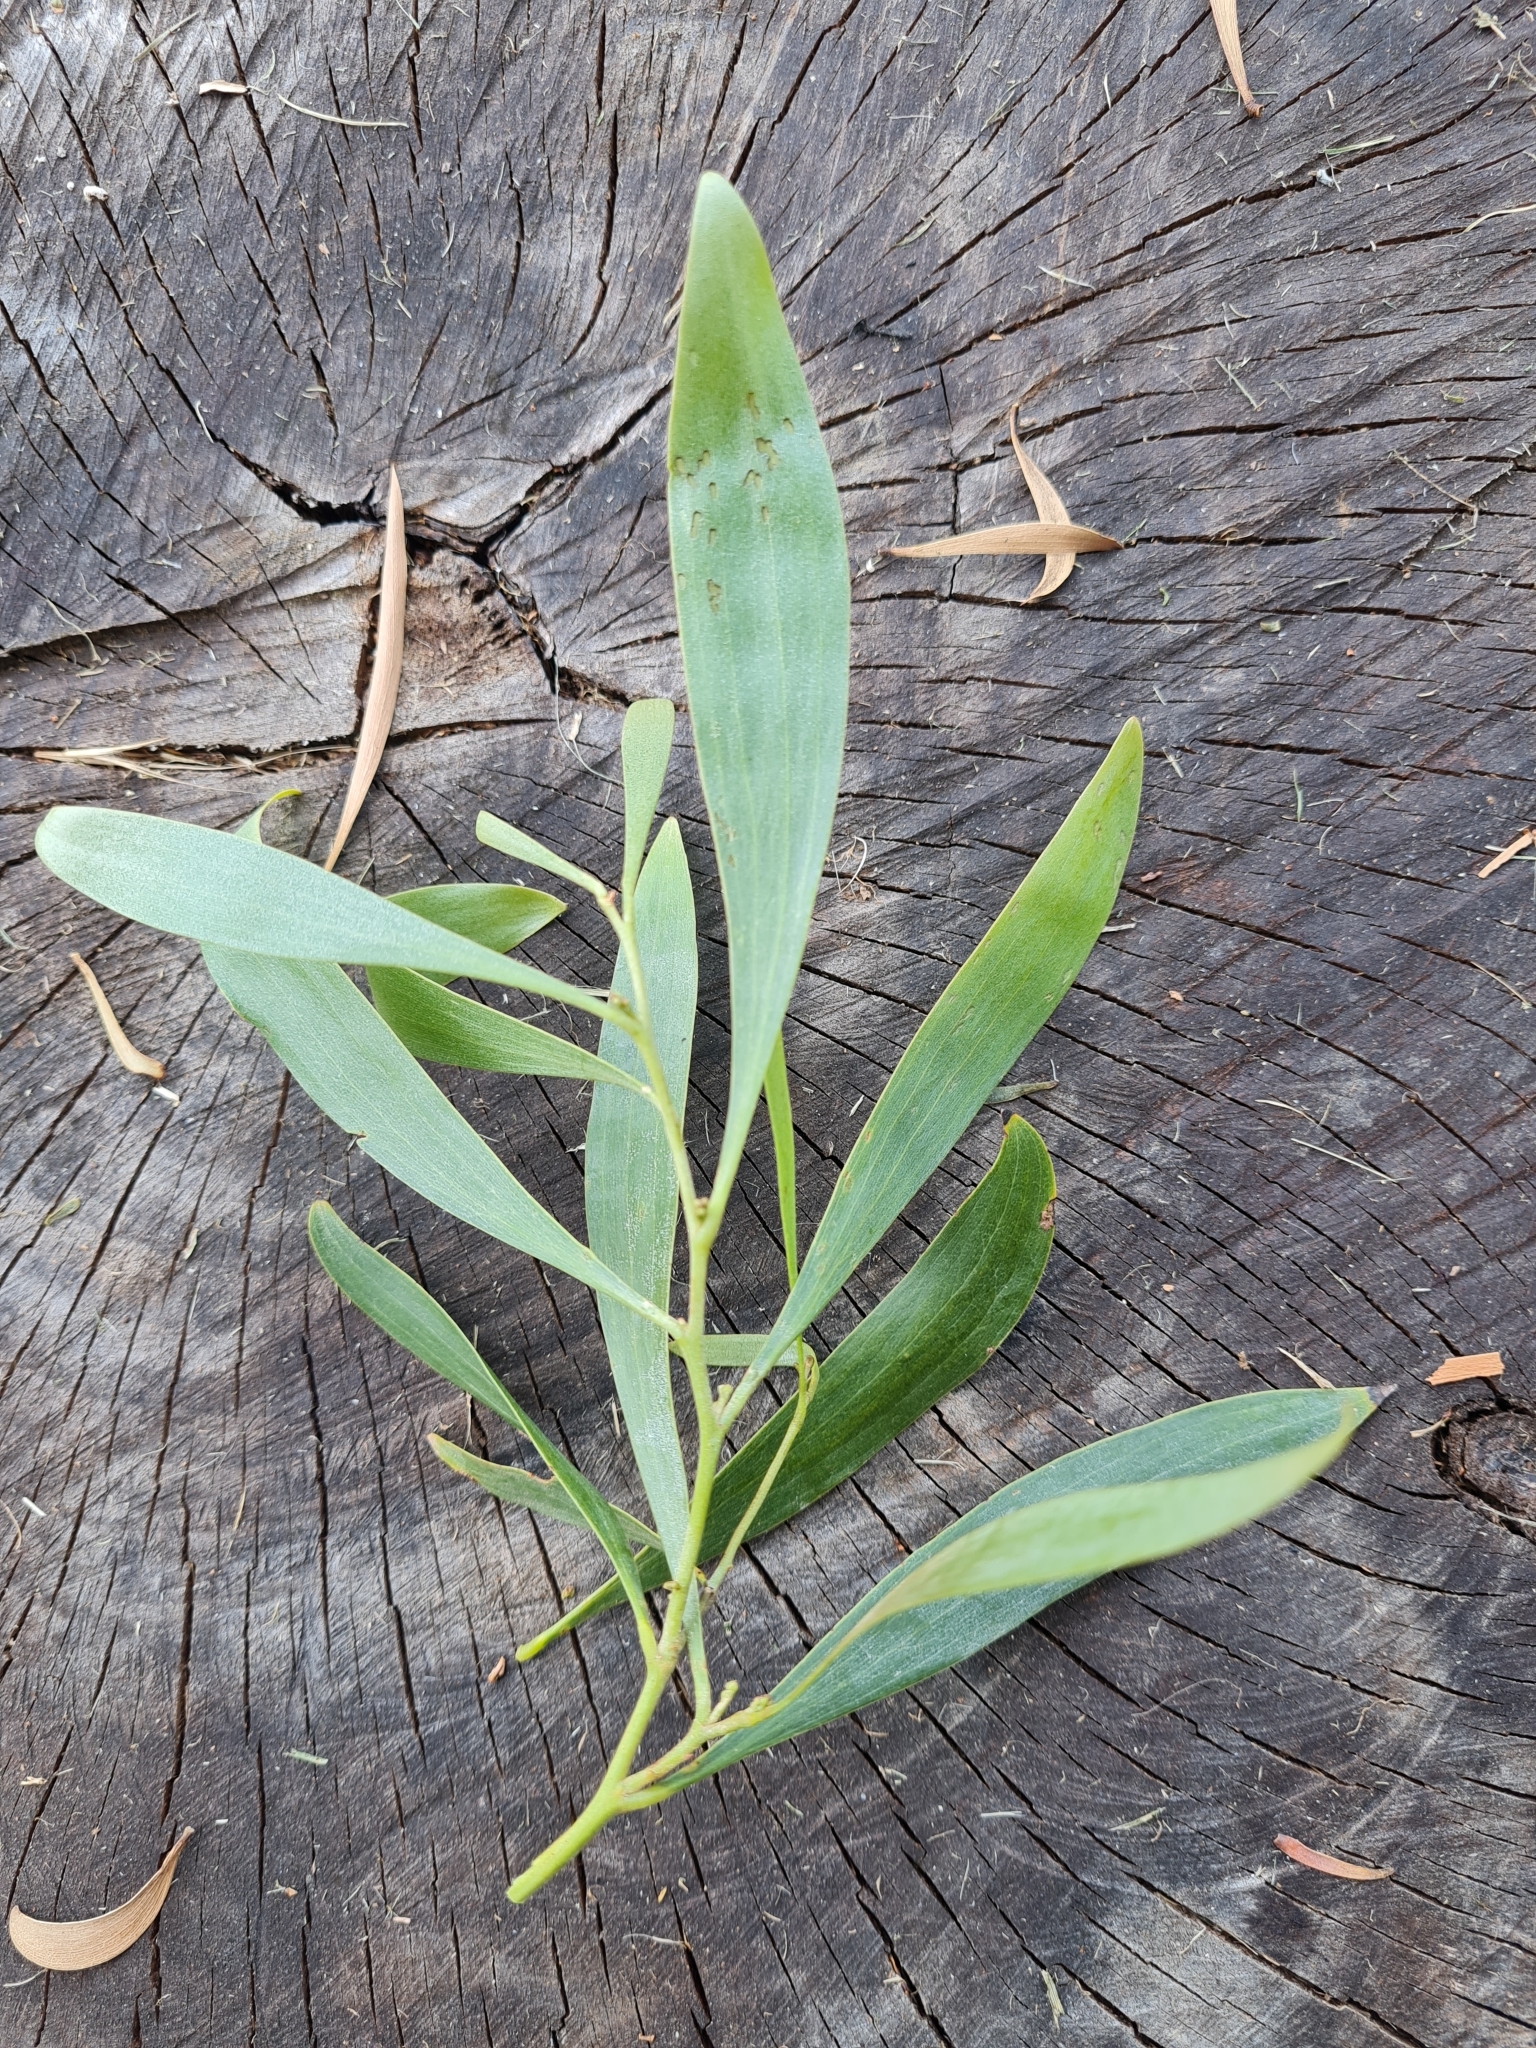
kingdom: Plantae
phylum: Tracheophyta
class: Magnoliopsida
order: Fabales
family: Fabaceae
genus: Acacia
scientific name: Acacia melanoxylon
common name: Blackwood
